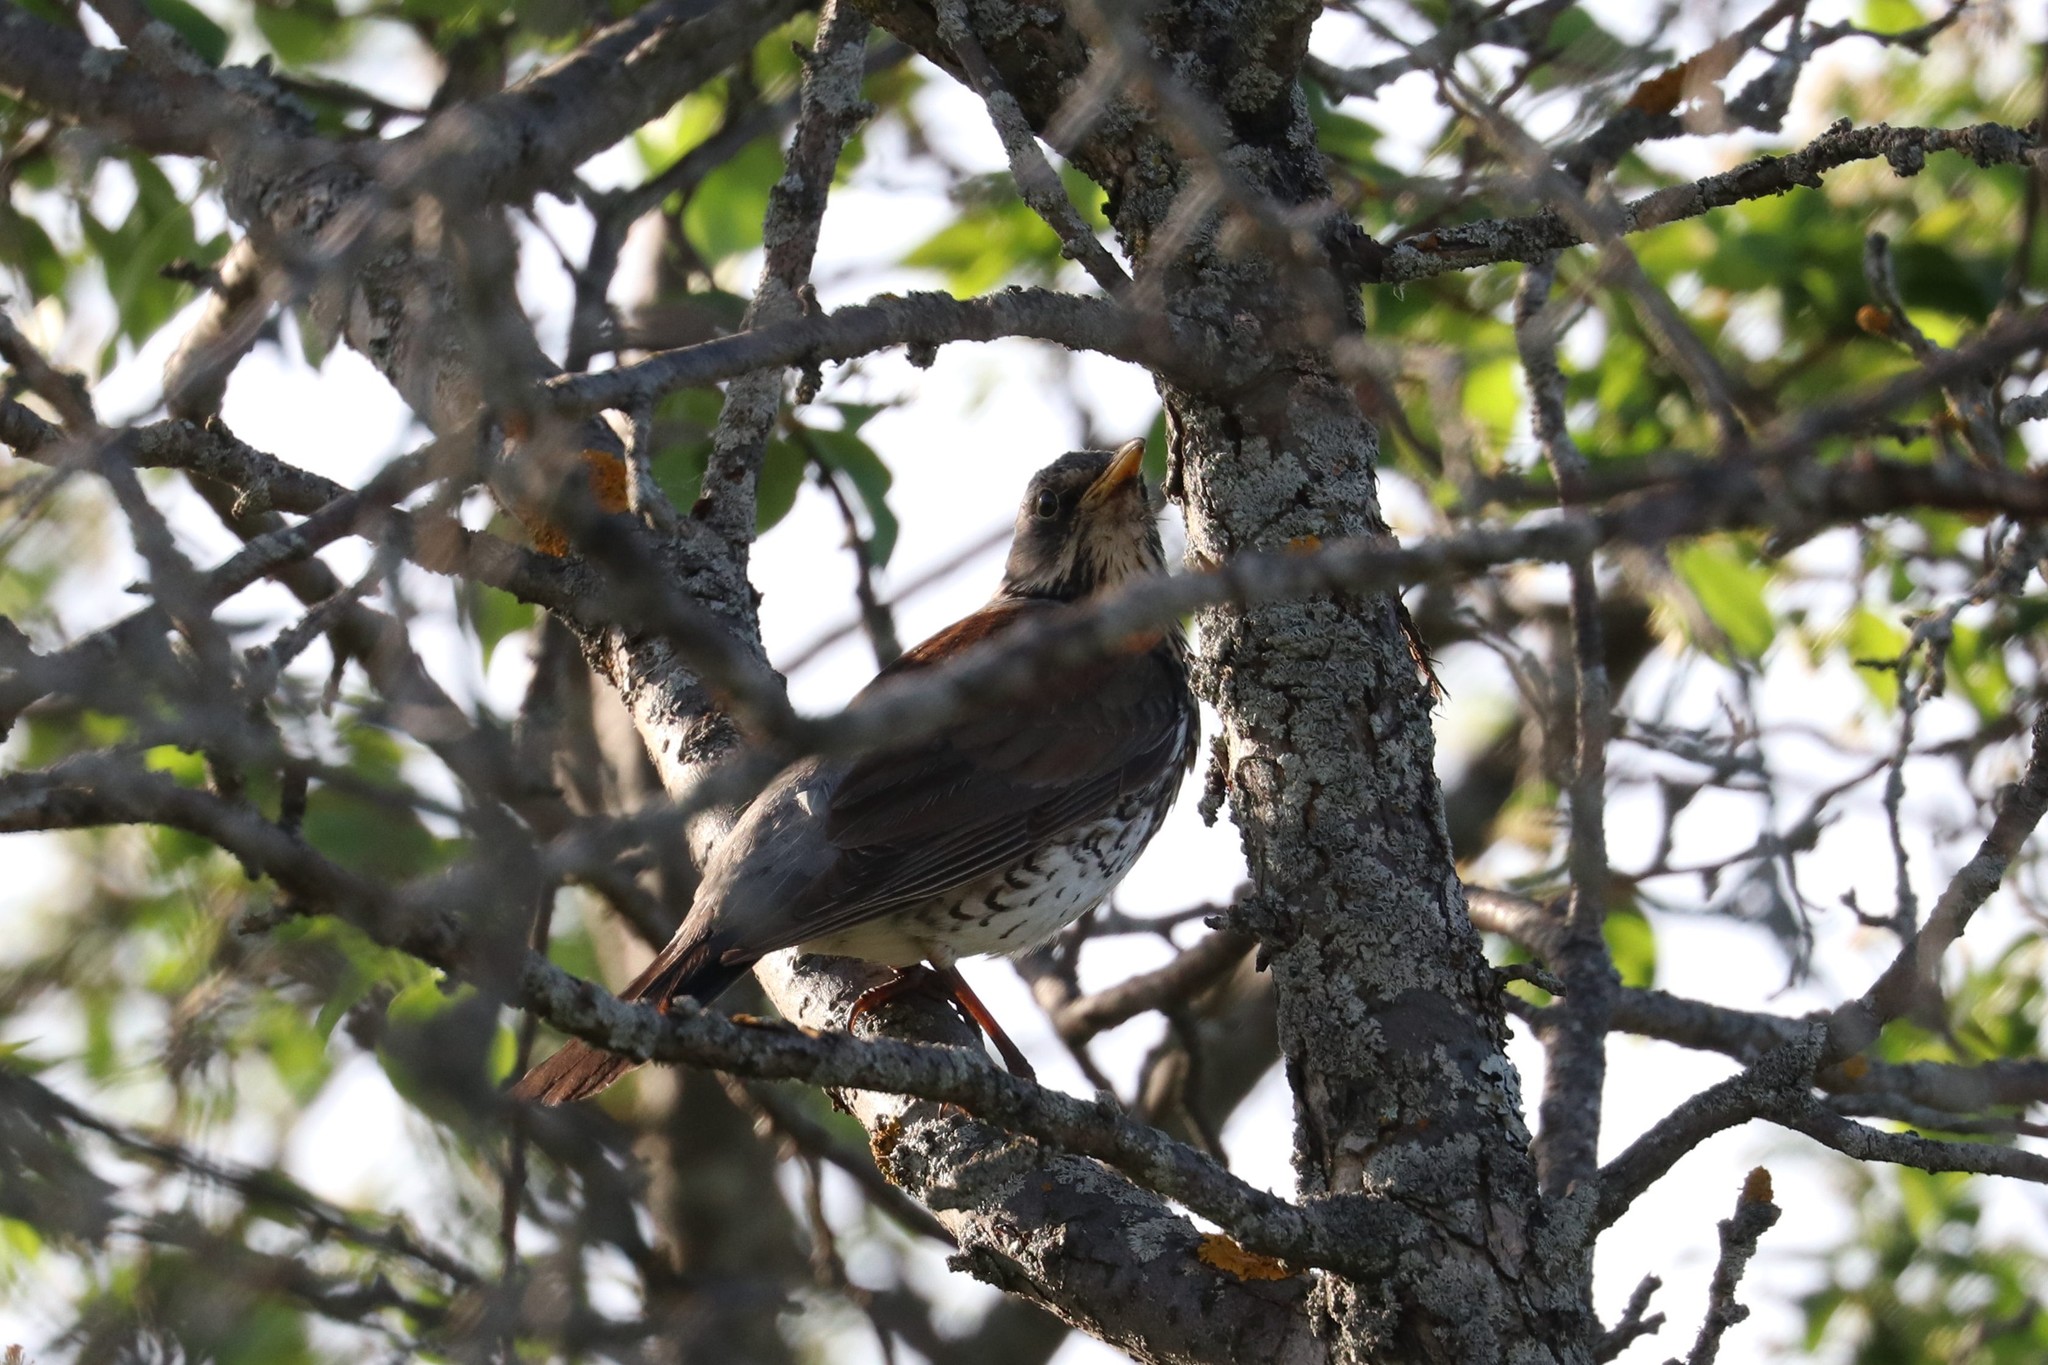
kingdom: Animalia
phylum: Chordata
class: Aves
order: Passeriformes
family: Turdidae
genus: Turdus
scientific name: Turdus pilaris
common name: Fieldfare
